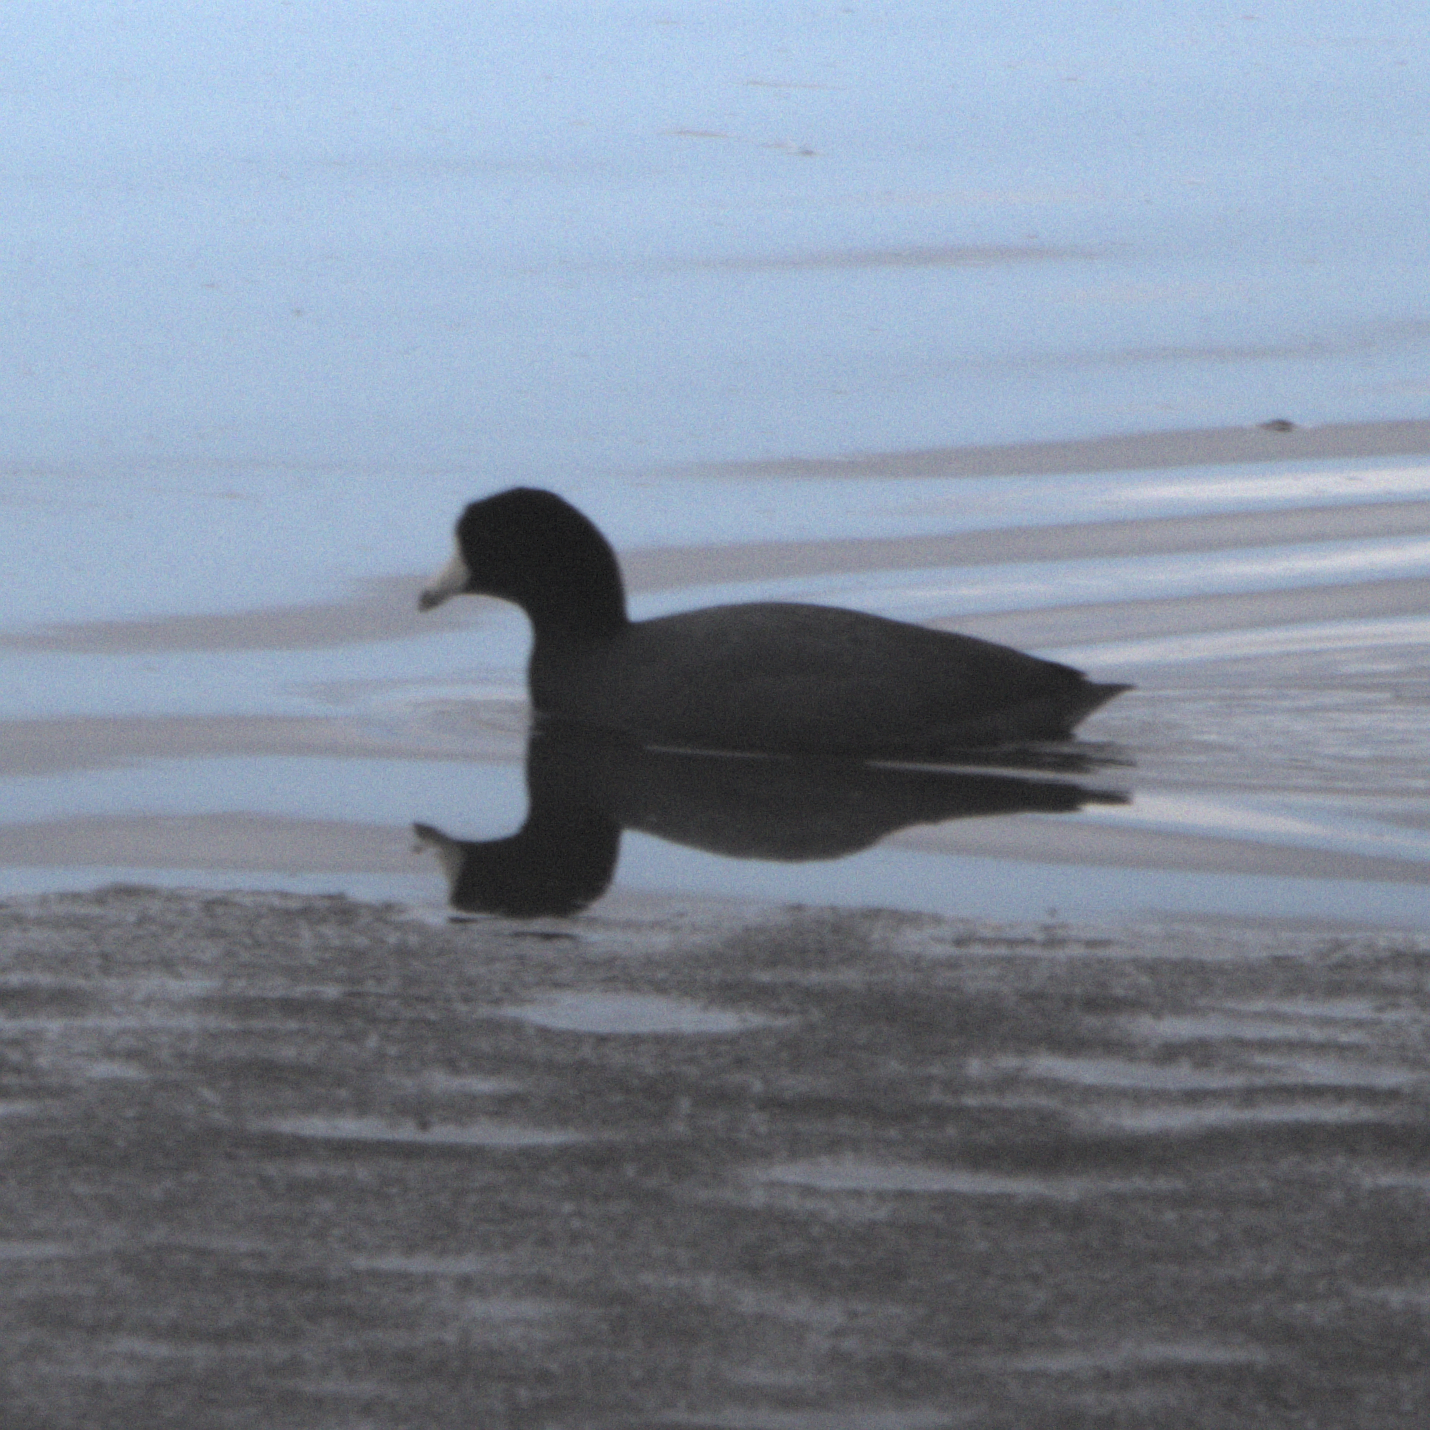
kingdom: Animalia
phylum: Chordata
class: Aves
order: Gruiformes
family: Rallidae
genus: Fulica
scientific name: Fulica americana
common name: American coot
